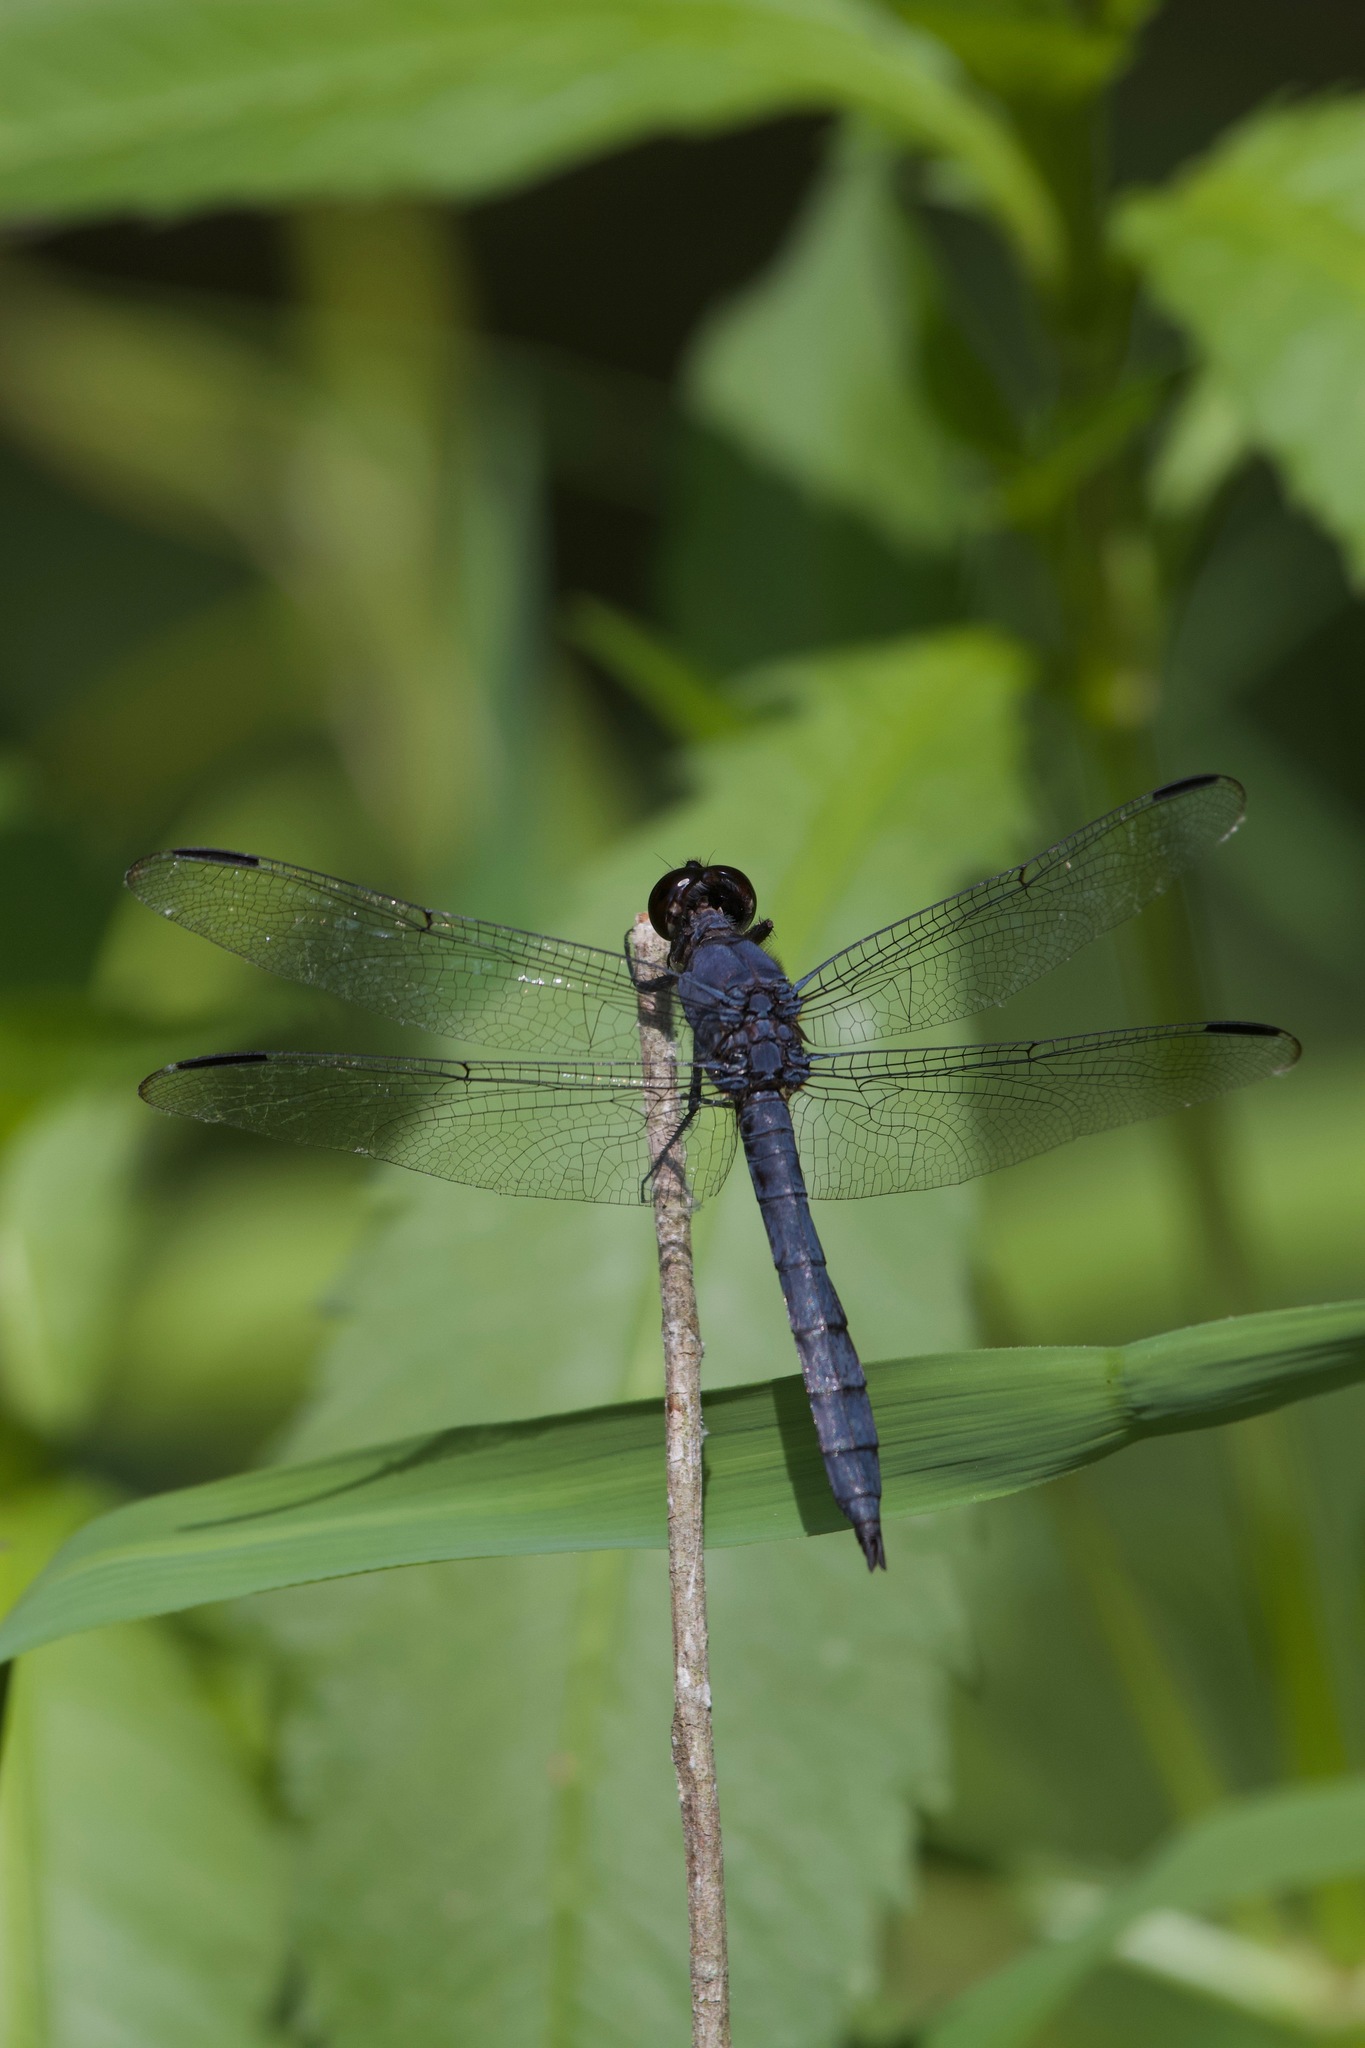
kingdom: Animalia
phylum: Arthropoda
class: Insecta
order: Odonata
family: Libellulidae
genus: Libellula
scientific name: Libellula incesta
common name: Slaty skimmer
